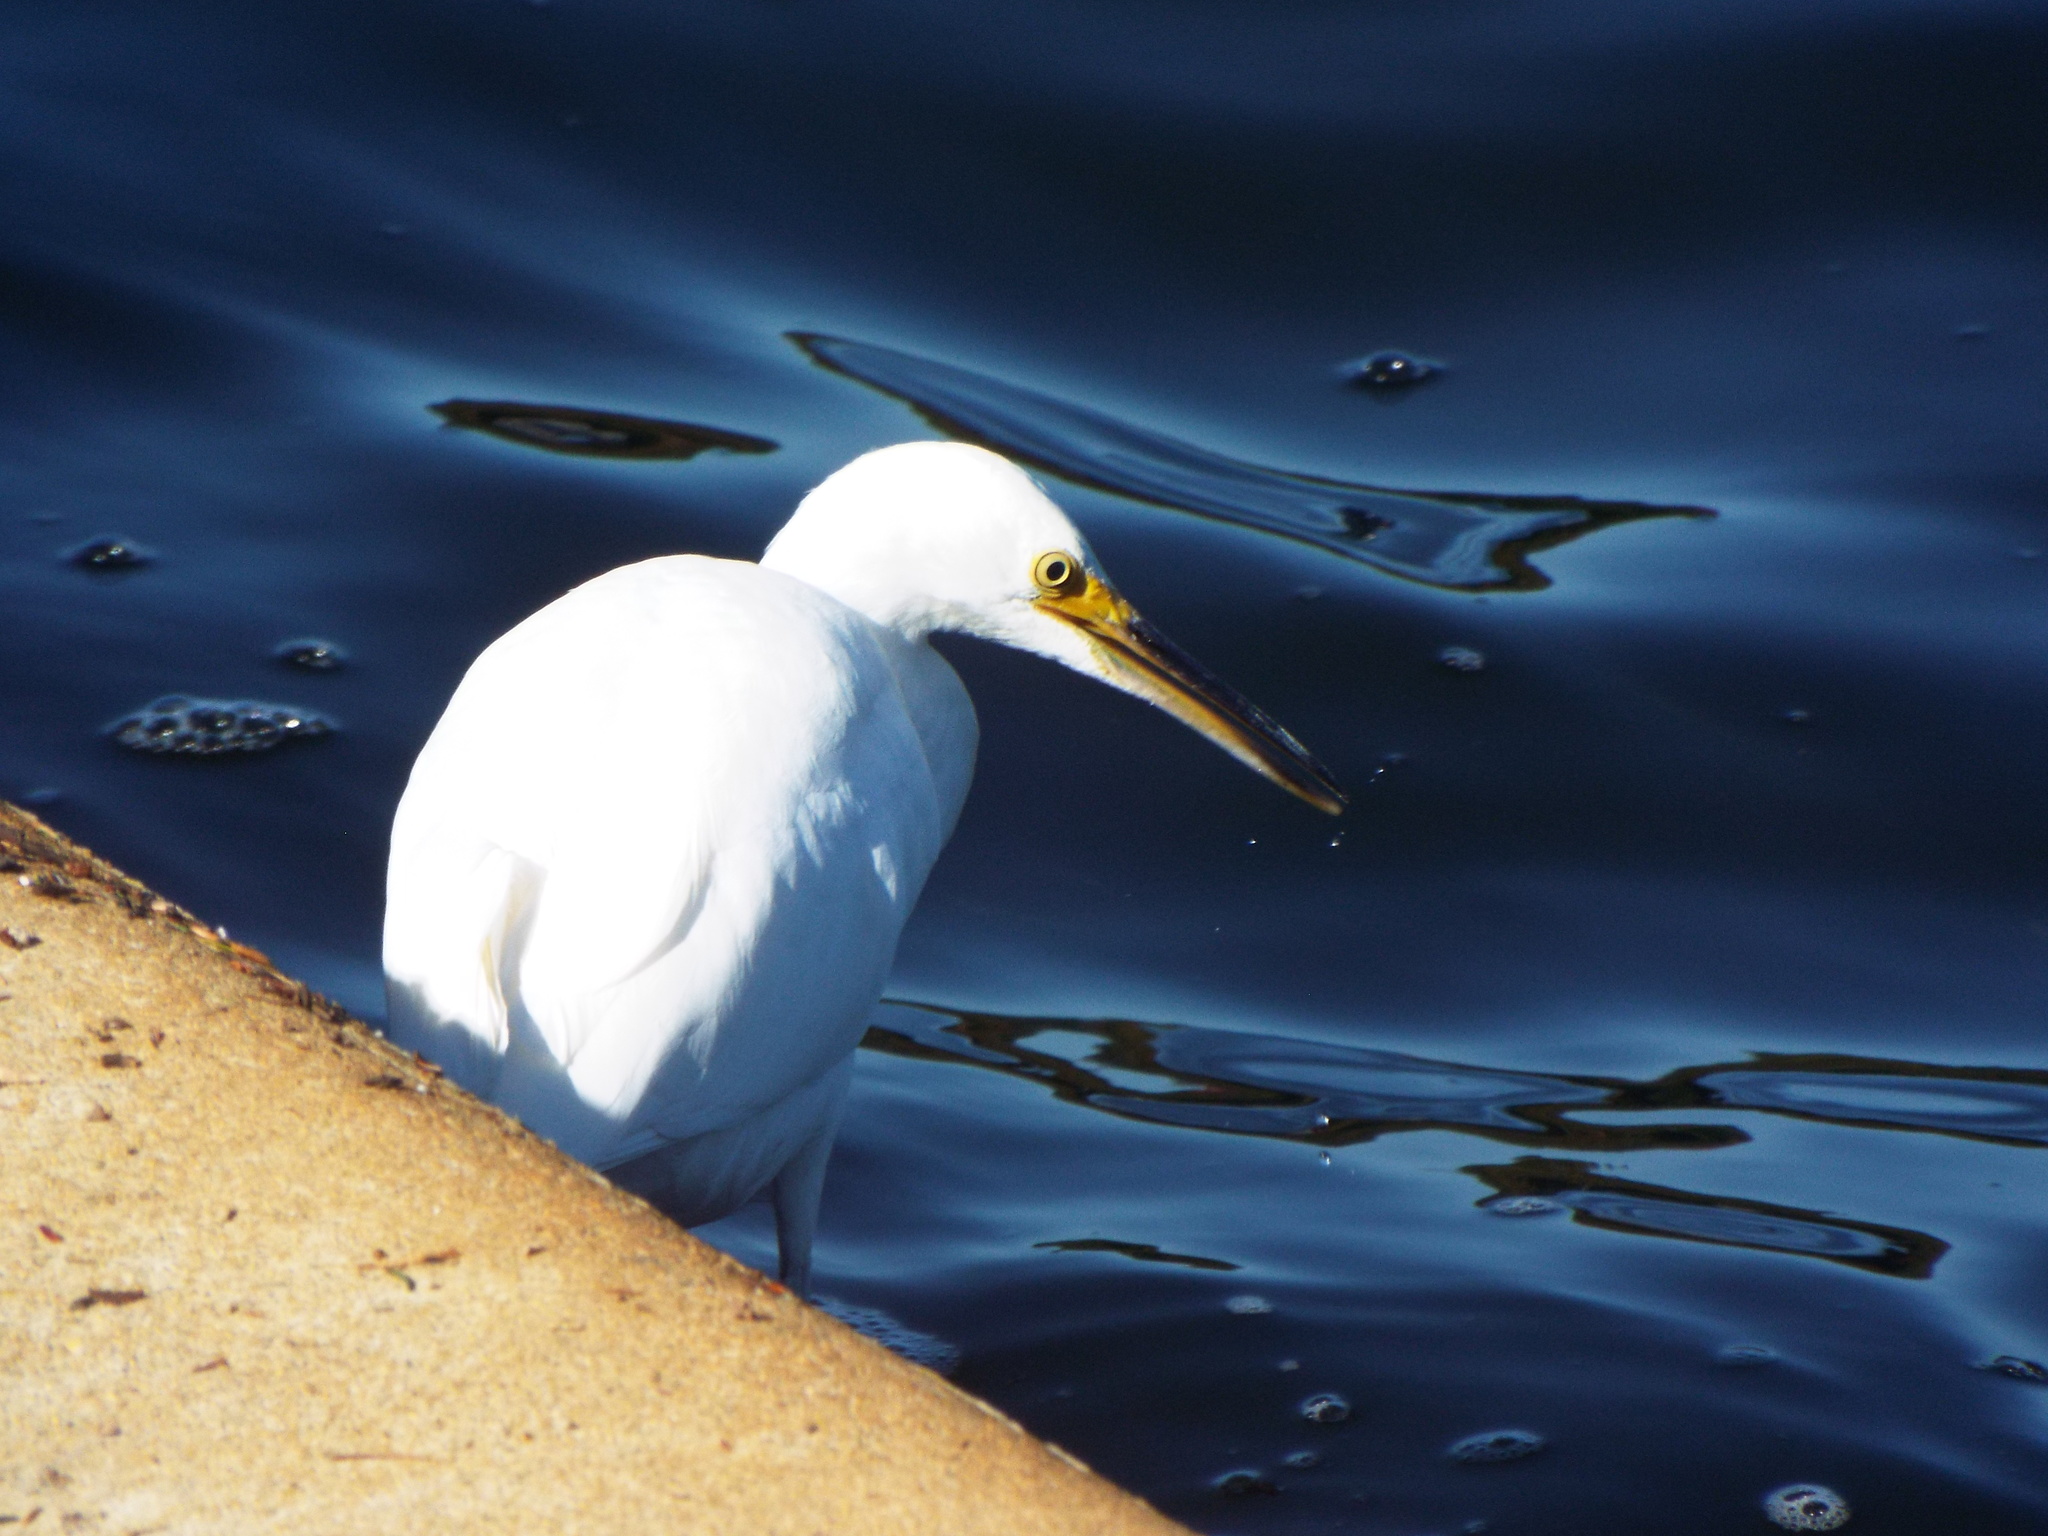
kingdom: Animalia
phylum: Chordata
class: Aves
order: Pelecaniformes
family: Ardeidae
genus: Egretta
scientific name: Egretta thula
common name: Snowy egret
